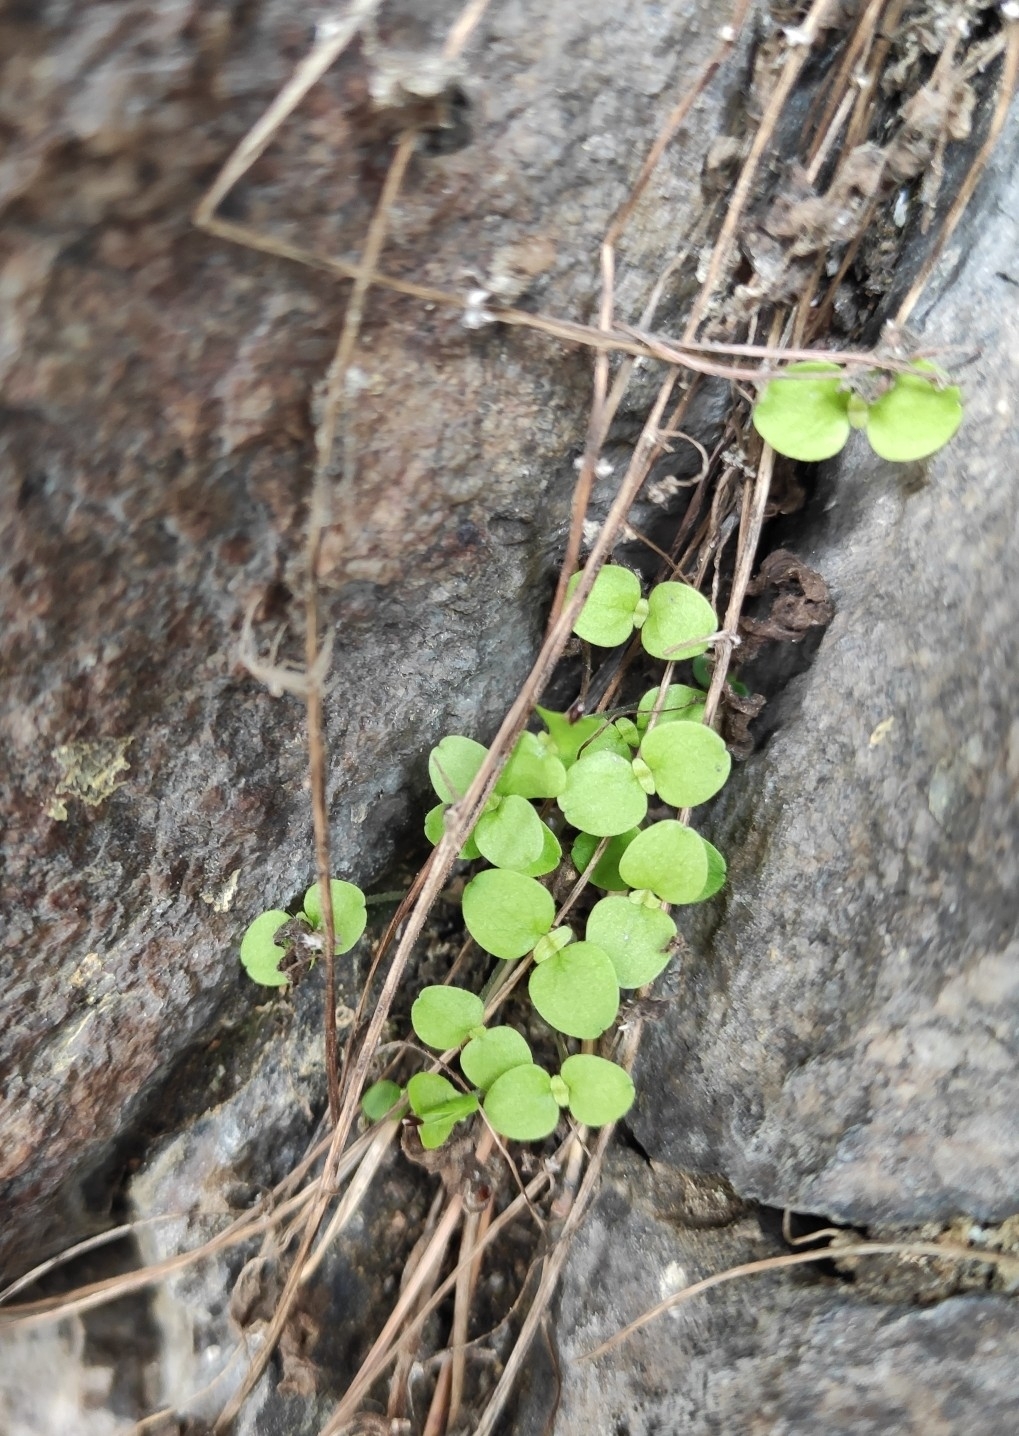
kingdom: Plantae
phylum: Tracheophyta
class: Magnoliopsida
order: Rosales
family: Urticaceae
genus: Parietaria
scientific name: Parietaria micrantha
